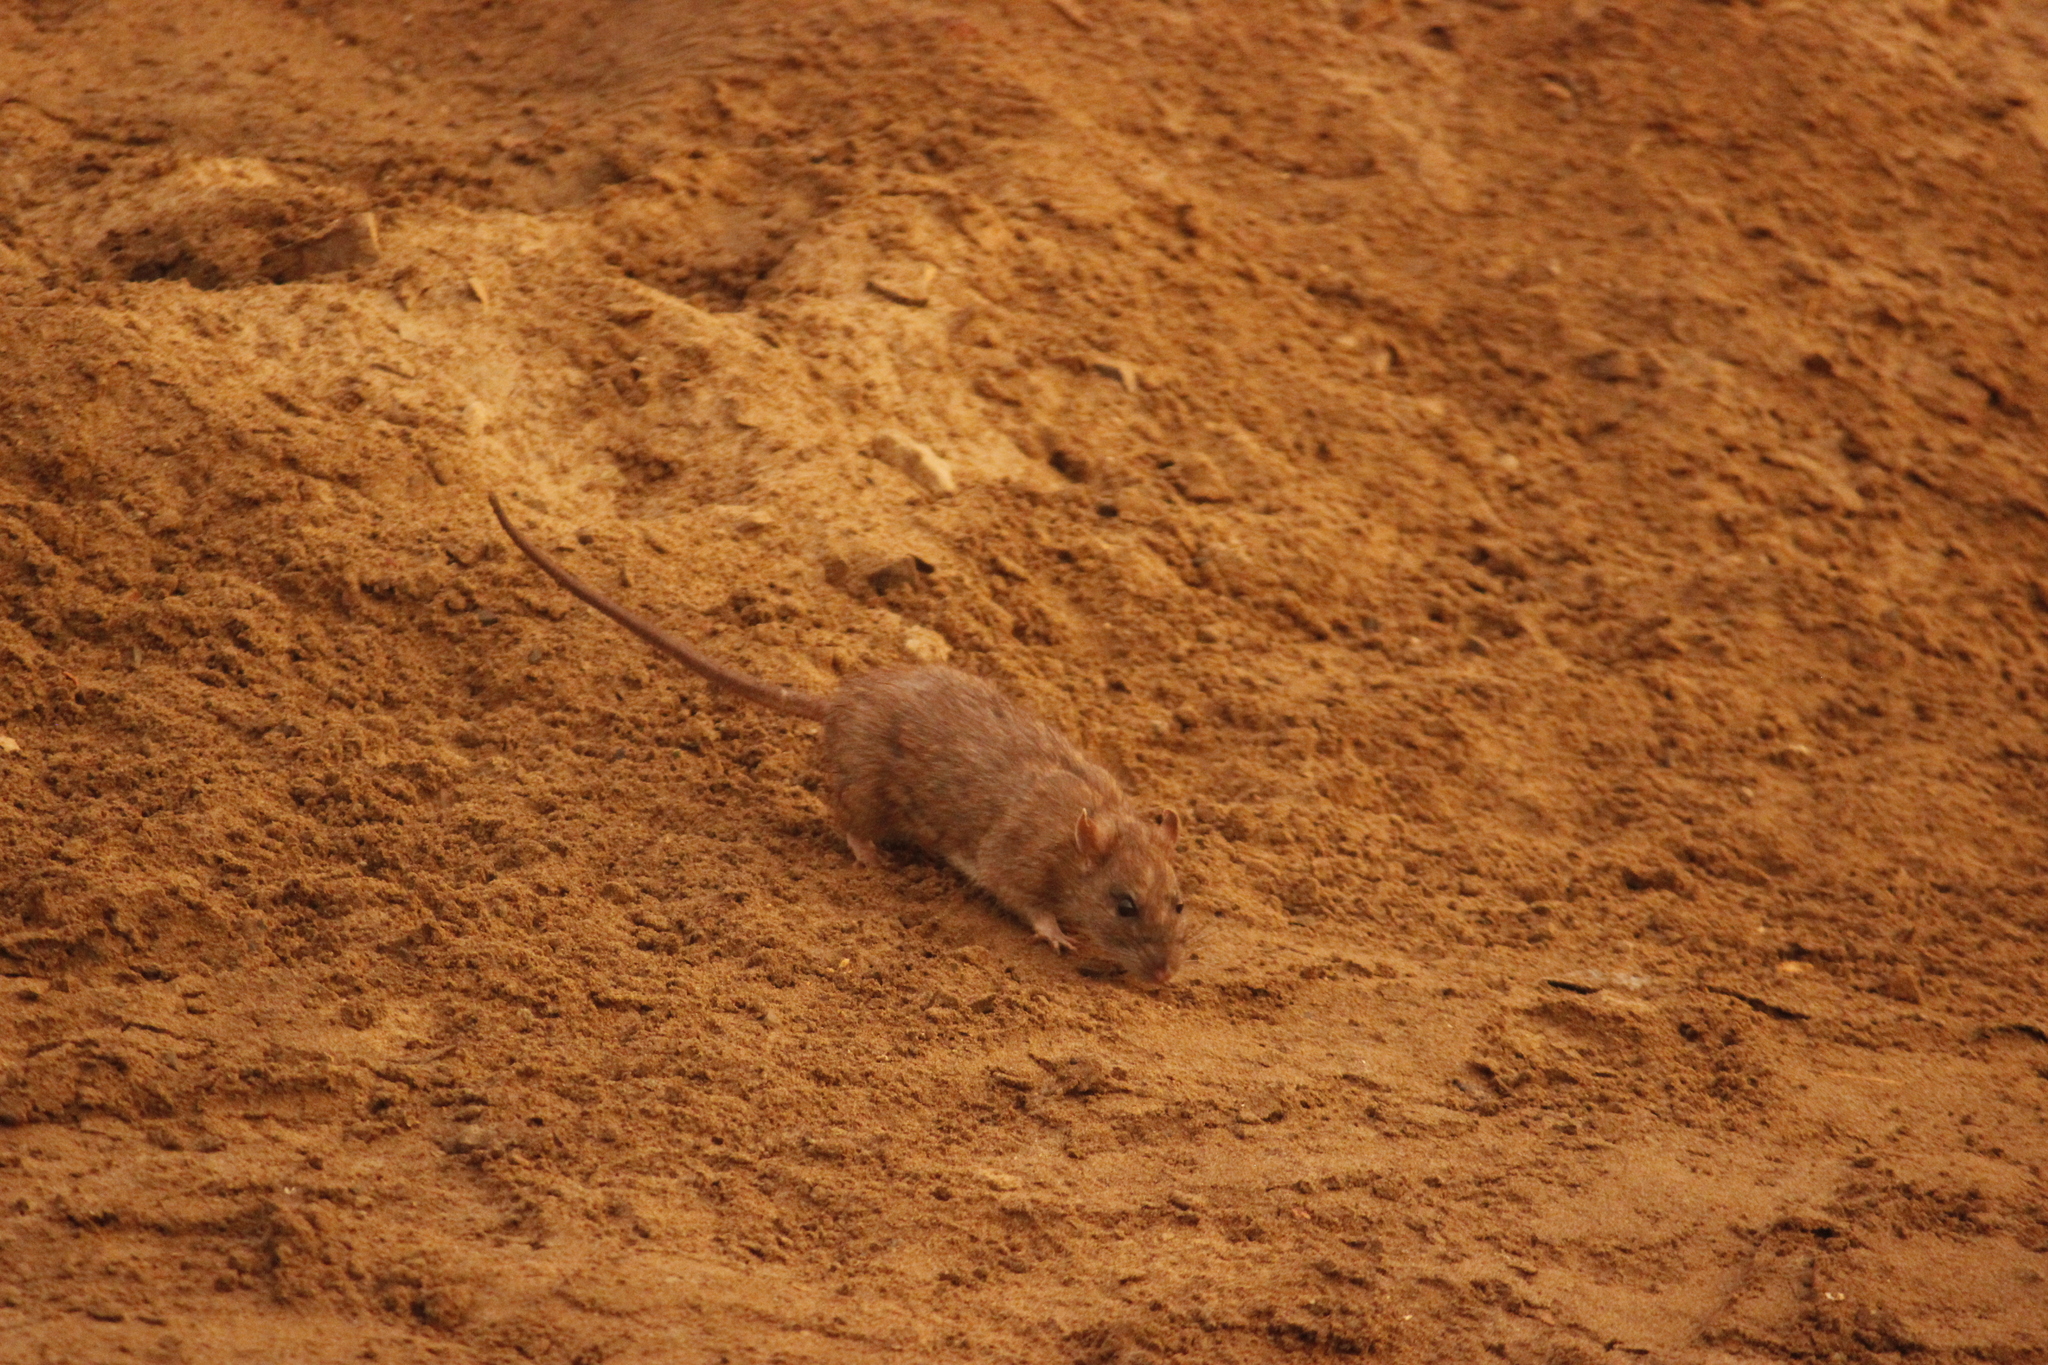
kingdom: Animalia
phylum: Chordata
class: Mammalia
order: Rodentia
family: Muridae
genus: Rattus
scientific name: Rattus rattus
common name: Black rat
